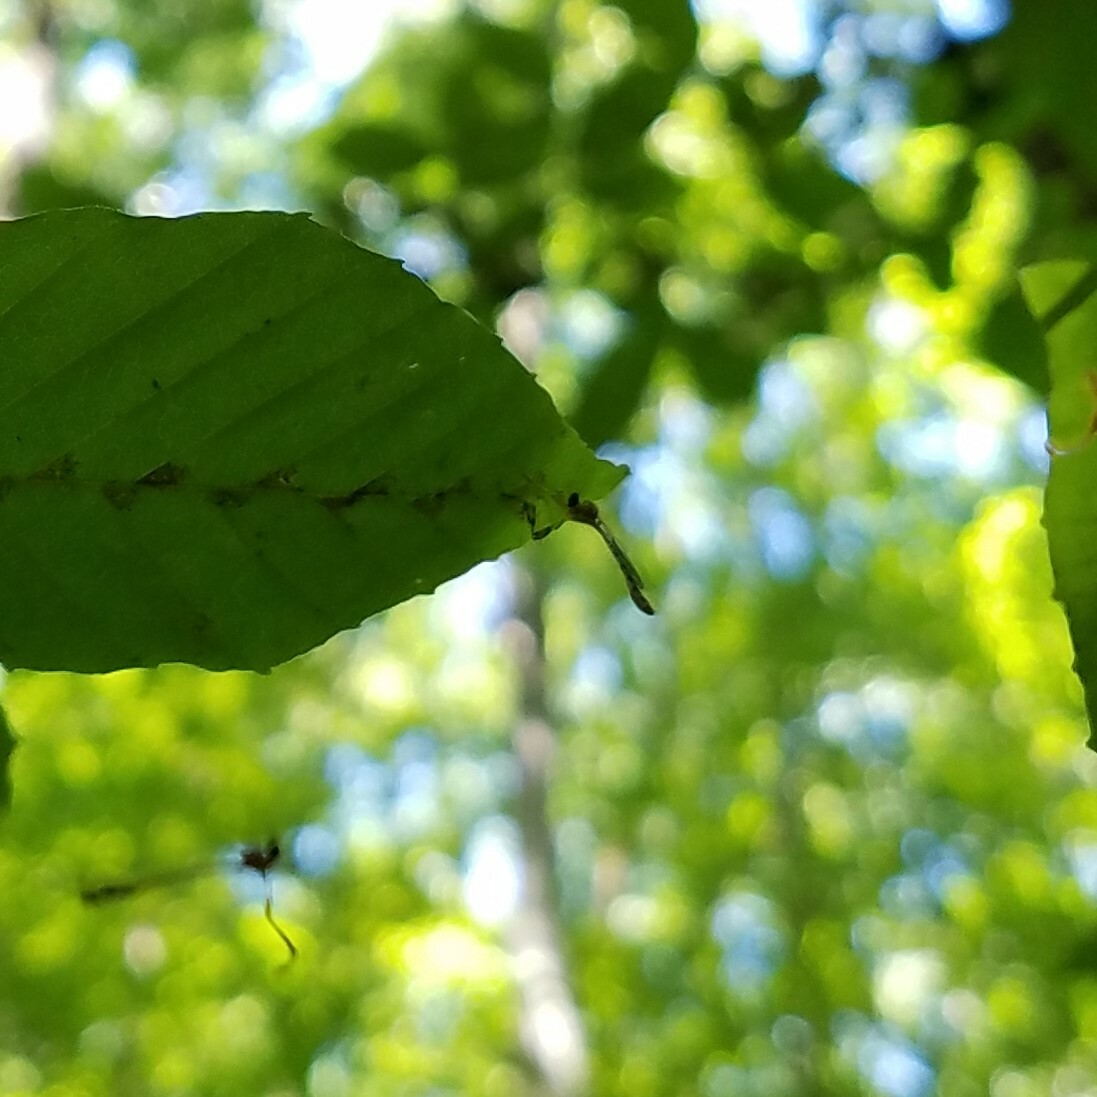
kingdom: Animalia
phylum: Arthropoda
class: Insecta
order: Diptera
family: Asilidae
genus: Psilonyx
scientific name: Psilonyx annulatus
